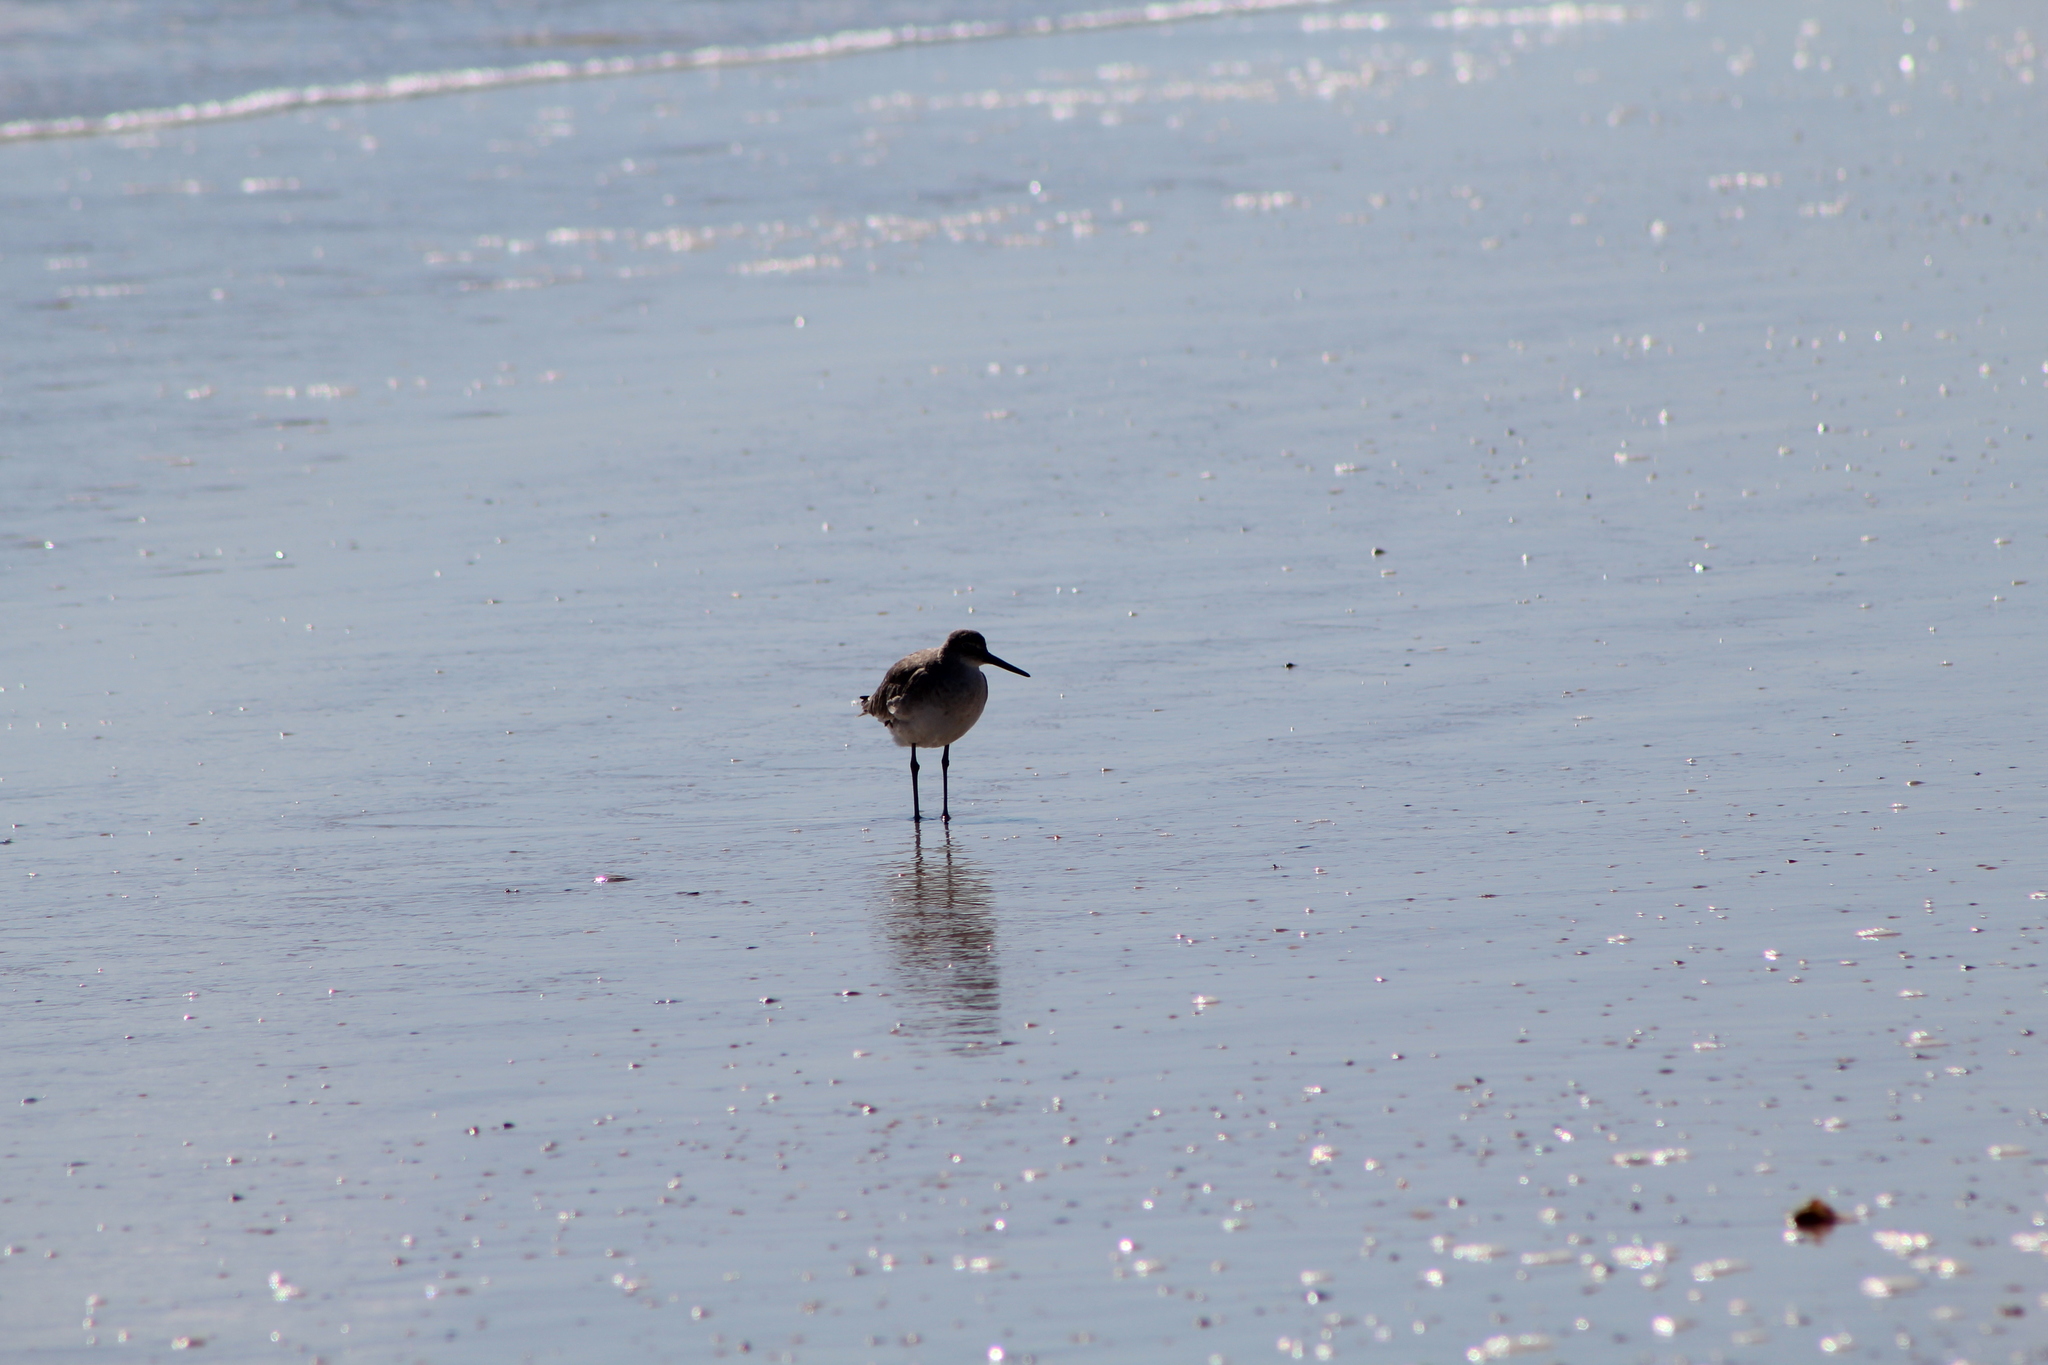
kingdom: Animalia
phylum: Chordata
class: Aves
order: Charadriiformes
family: Scolopacidae
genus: Tringa
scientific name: Tringa semipalmata
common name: Willet
